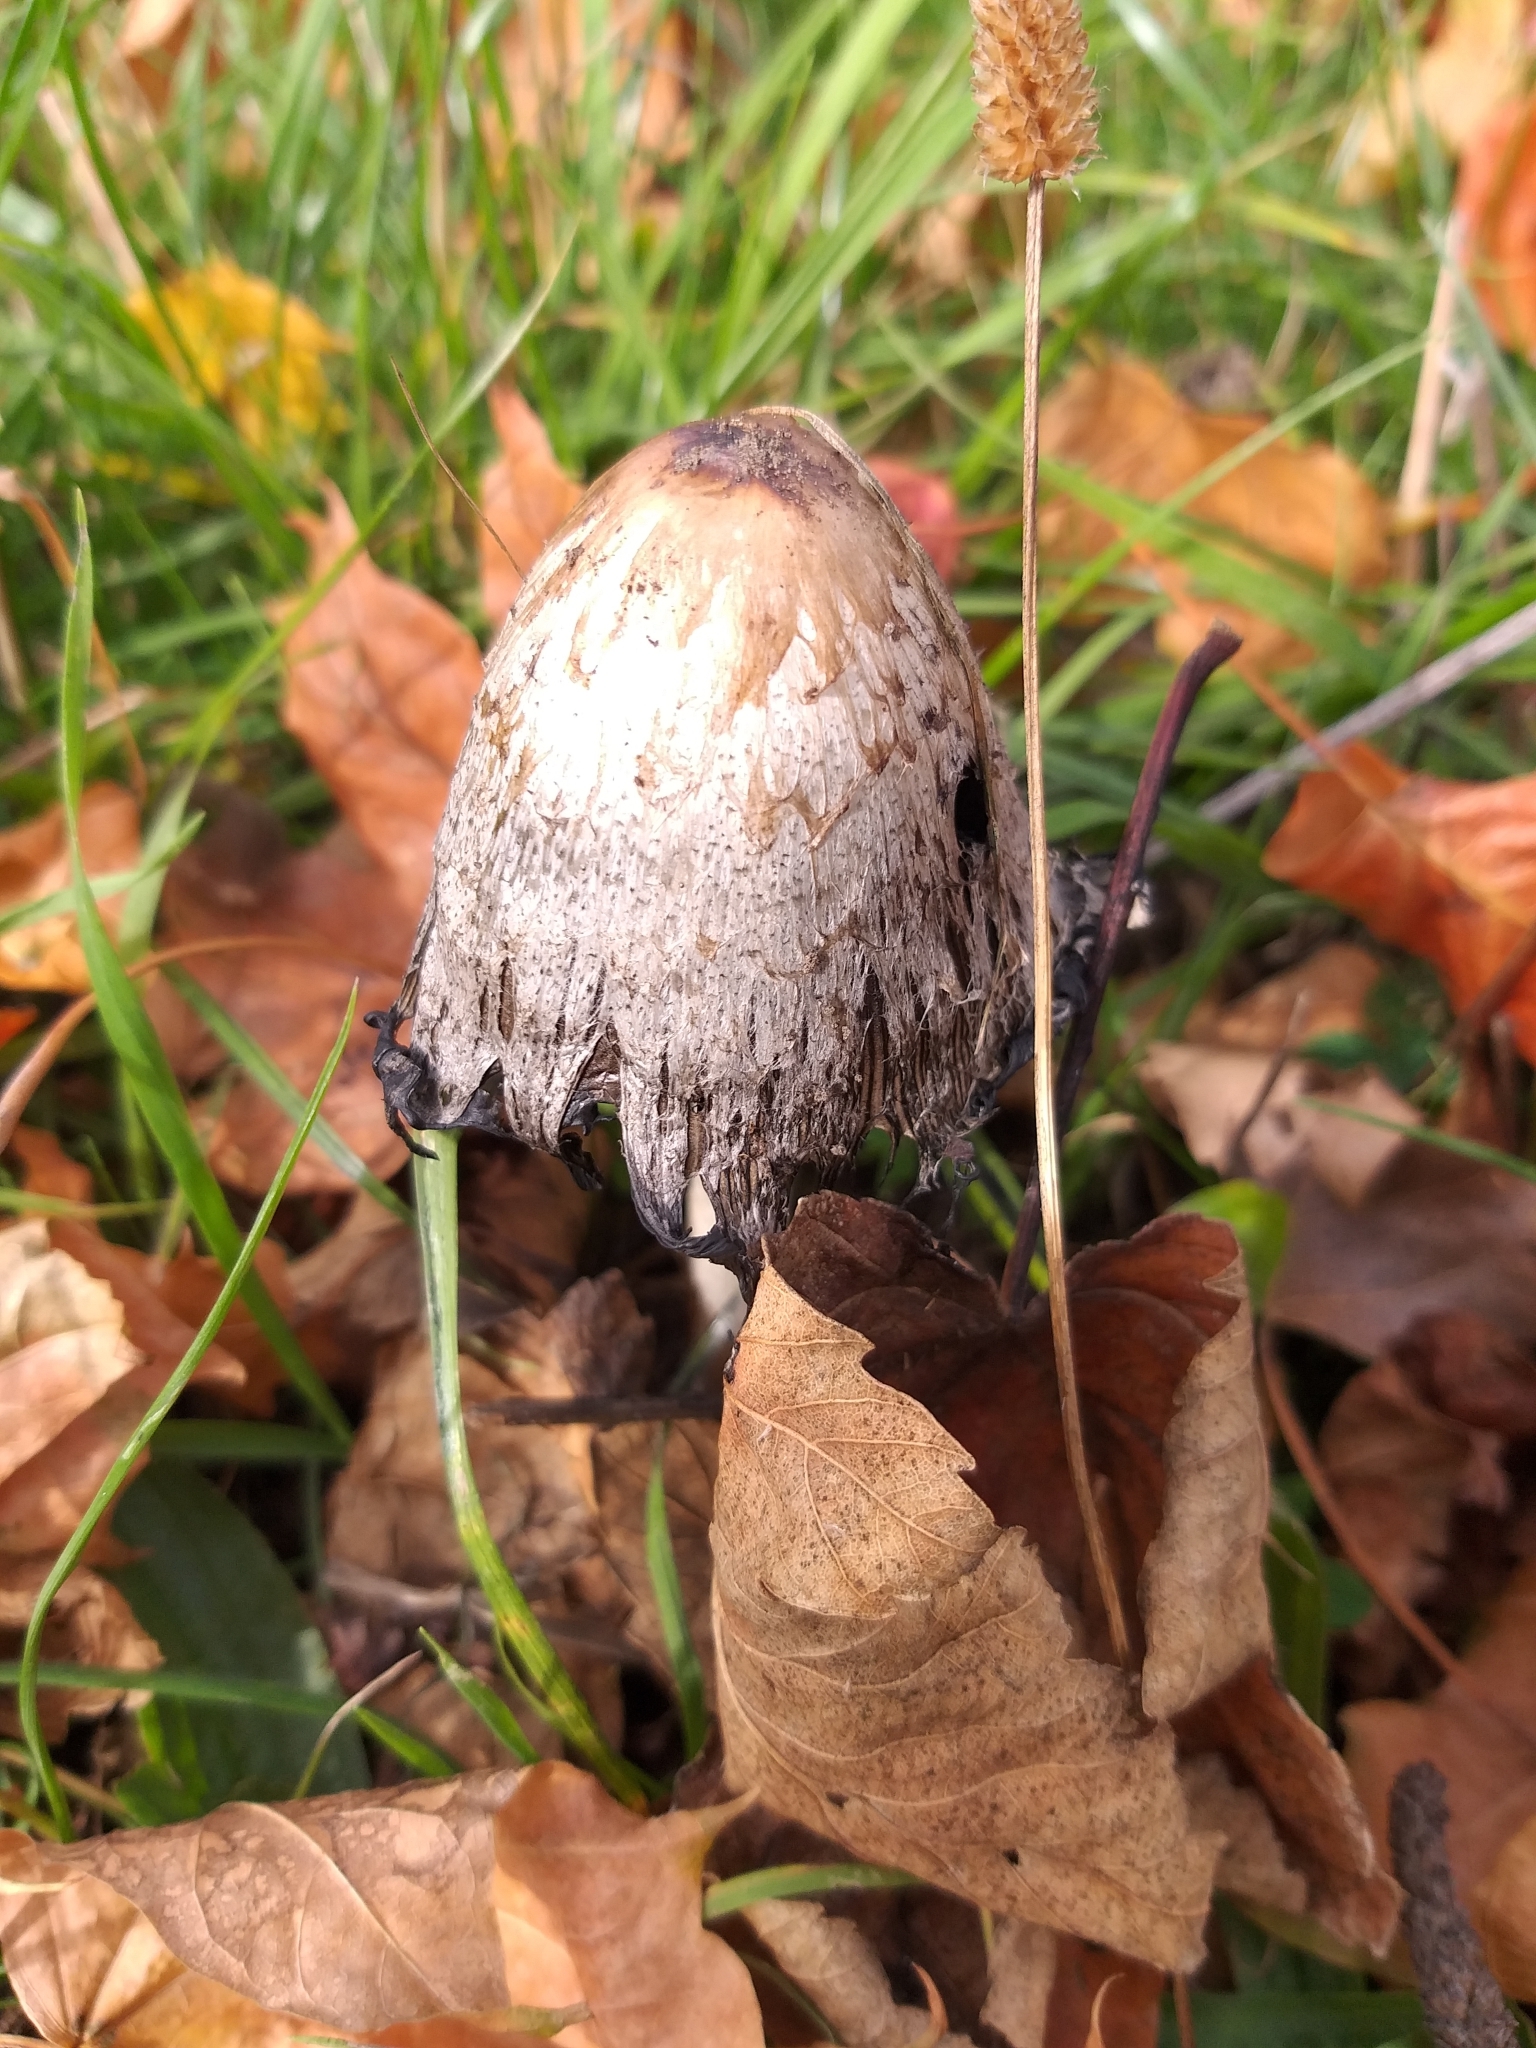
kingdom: Fungi
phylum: Basidiomycota
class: Agaricomycetes
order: Agaricales
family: Agaricaceae
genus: Coprinus
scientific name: Coprinus comatus
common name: Lawyer's wig
